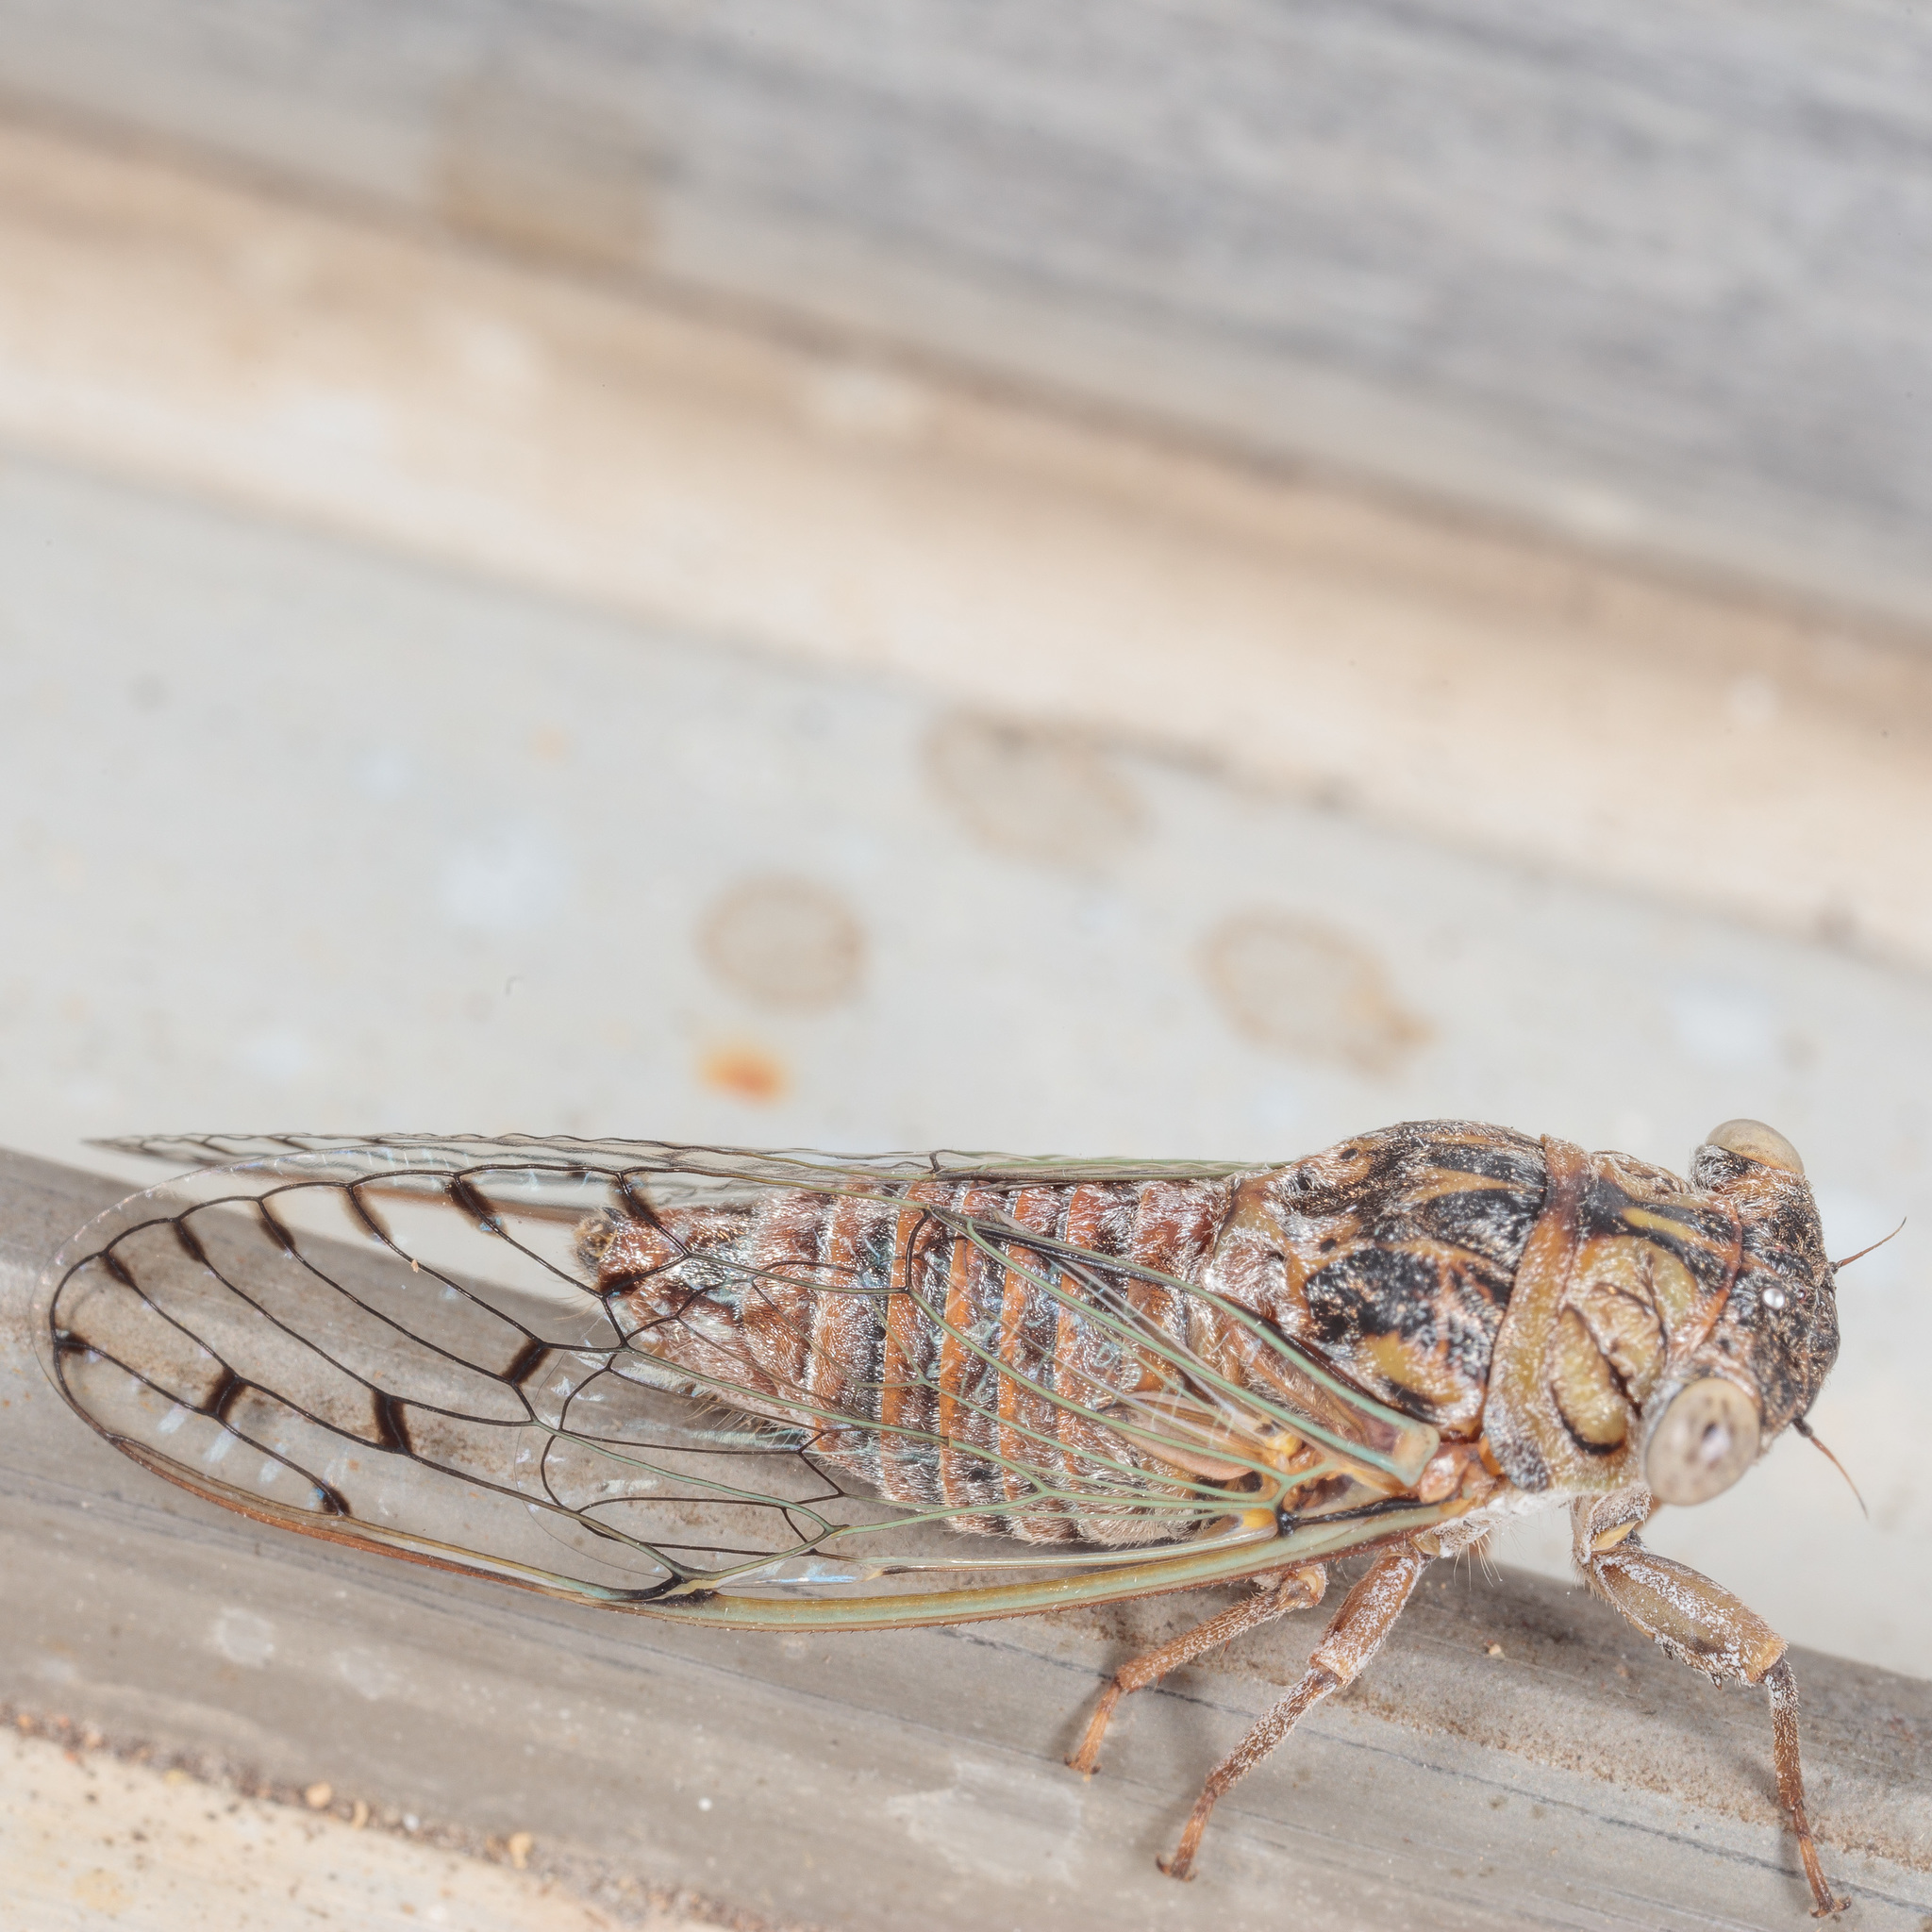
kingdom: Animalia
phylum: Arthropoda
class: Insecta
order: Hemiptera
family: Cicadidae
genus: Pacarina
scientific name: Pacarina puella
